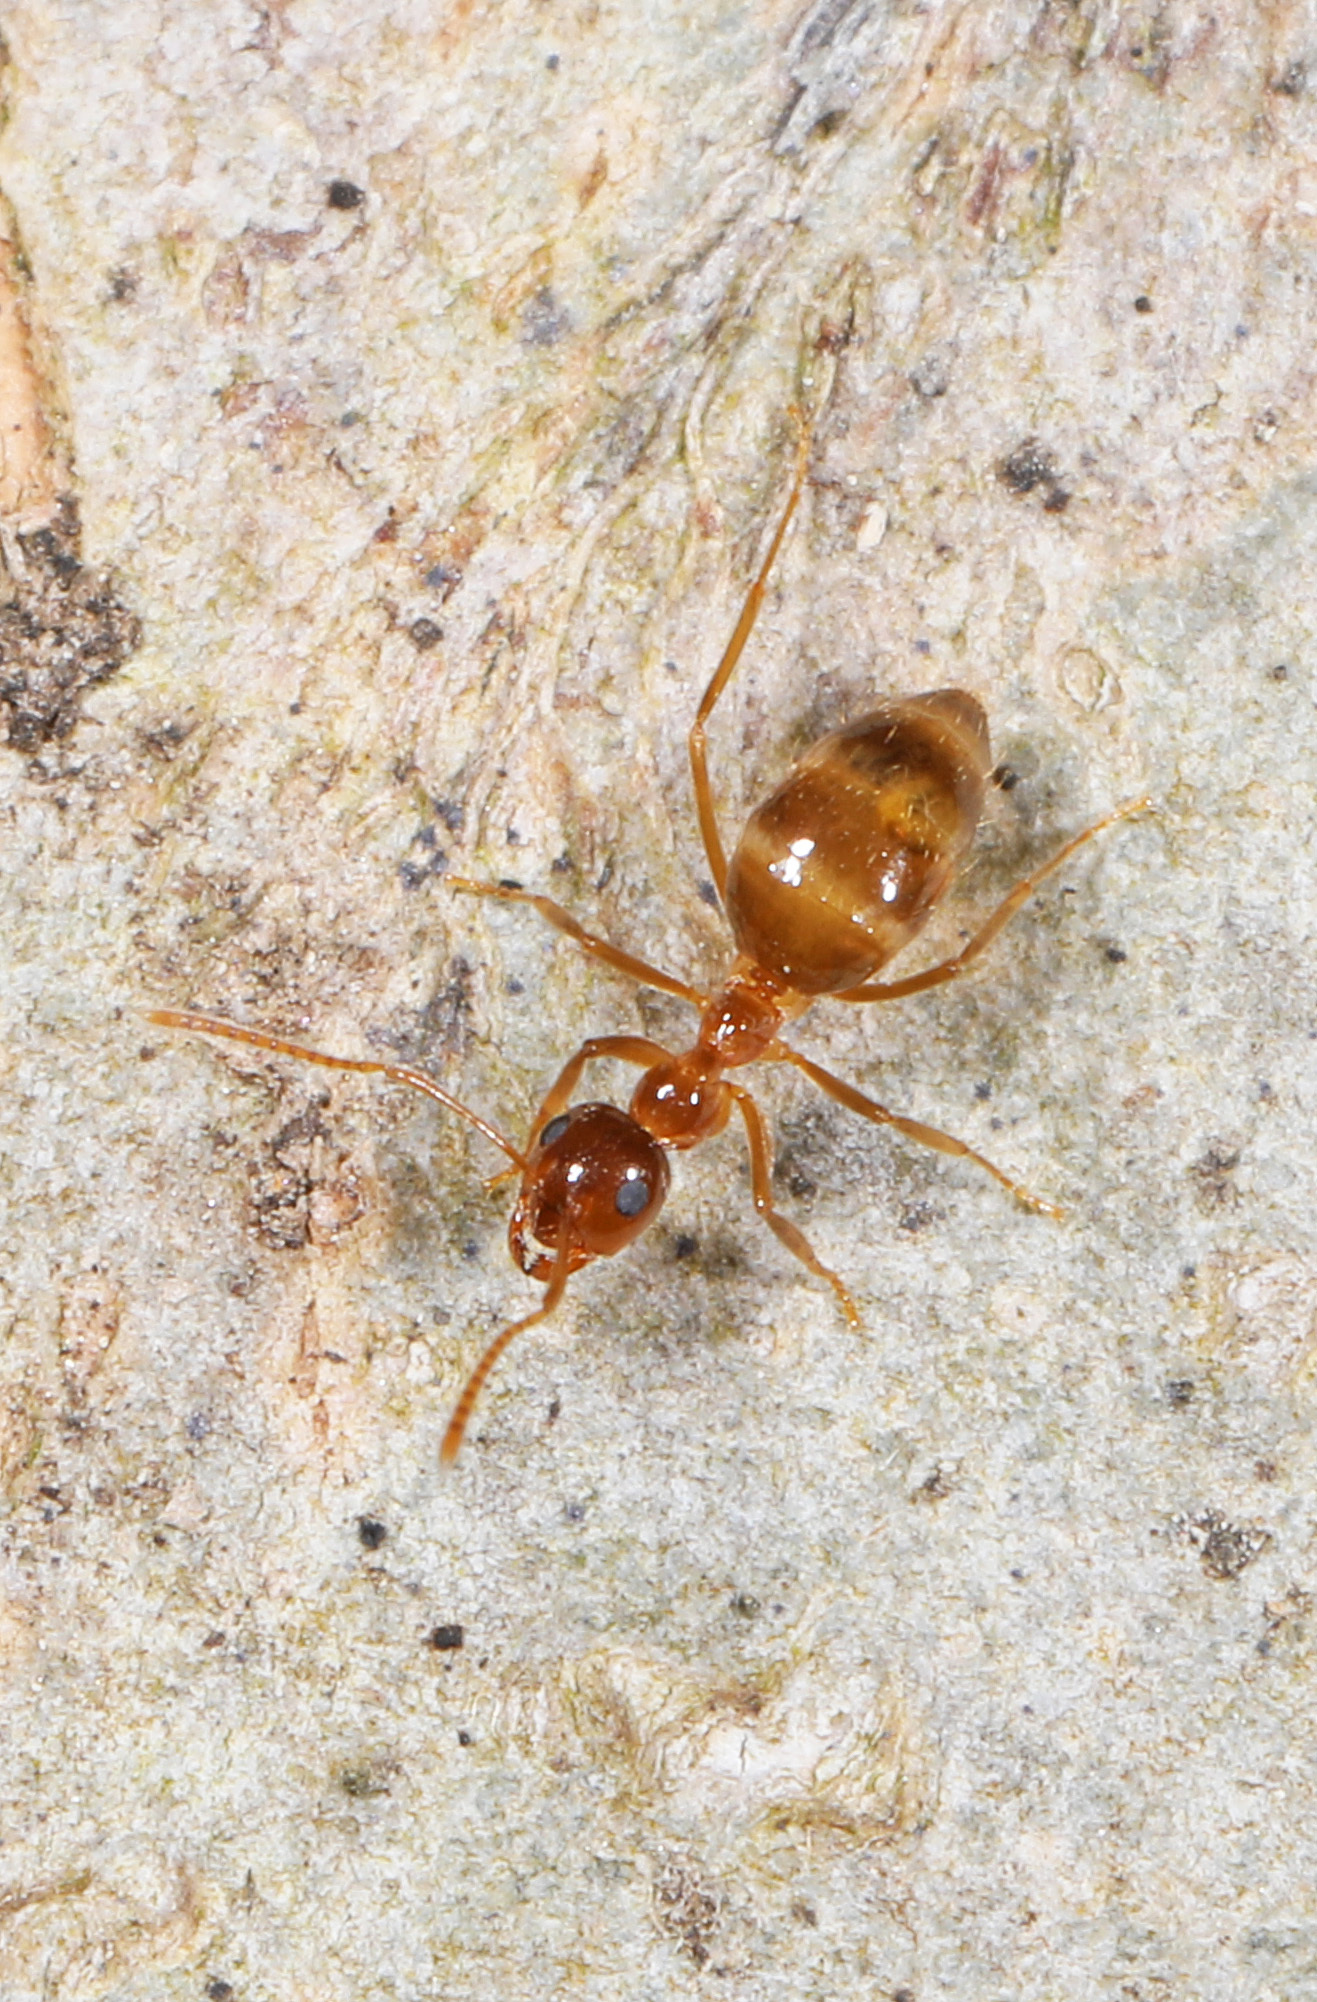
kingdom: Animalia
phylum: Arthropoda
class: Insecta
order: Hymenoptera
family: Formicidae
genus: Prenolepis
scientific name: Prenolepis imparis
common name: Small honey ant
